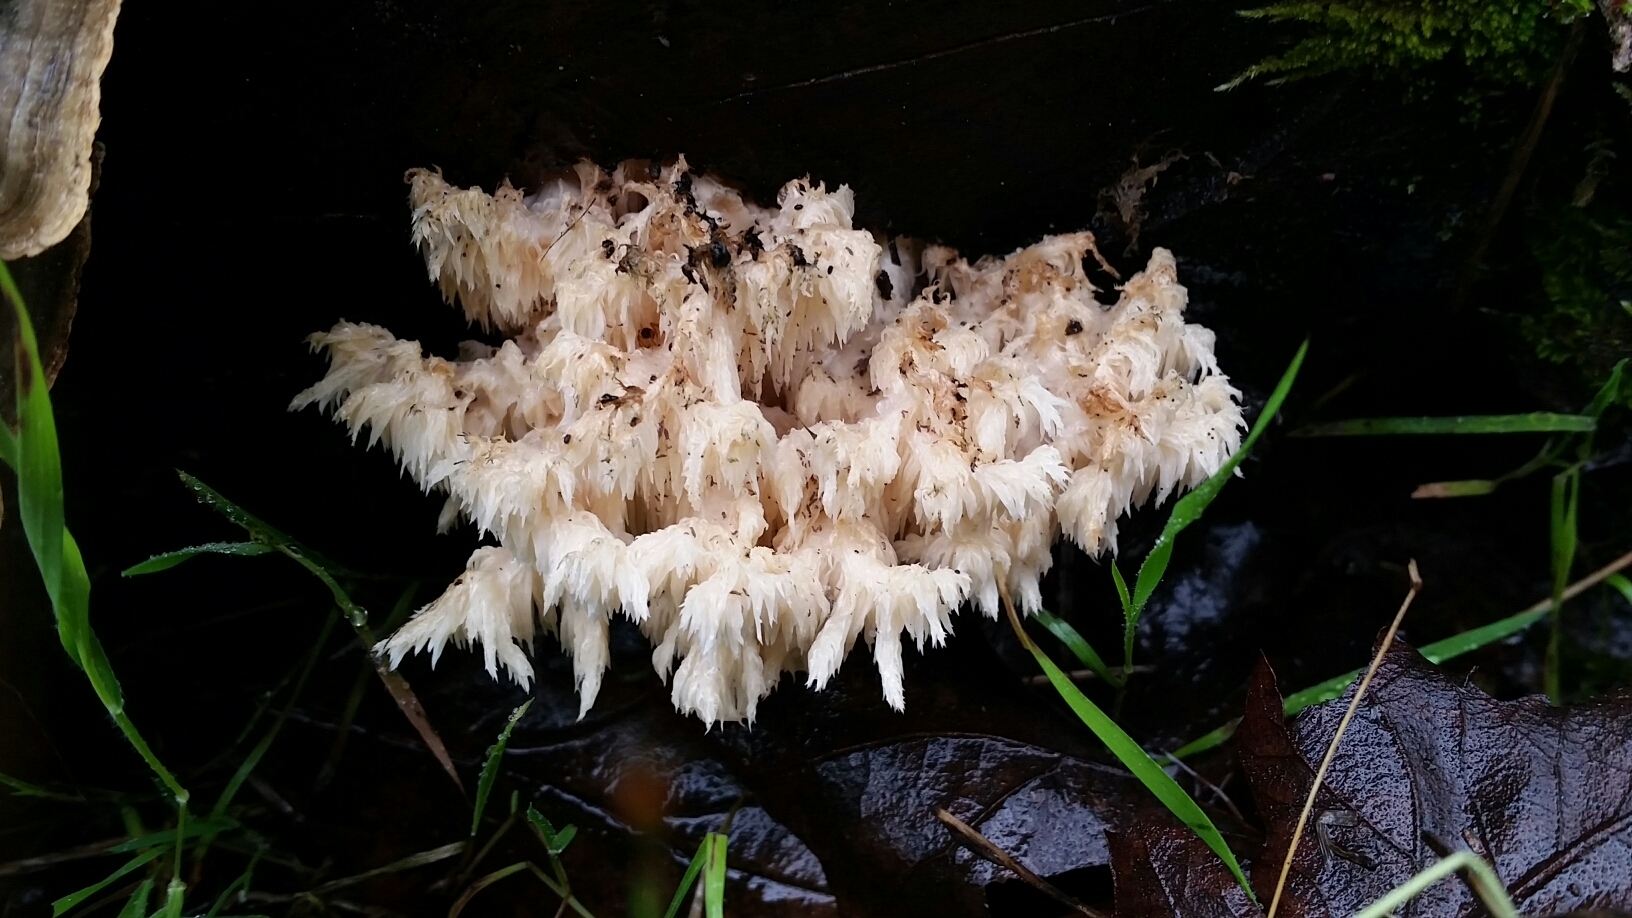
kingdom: Fungi
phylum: Basidiomycota
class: Agaricomycetes
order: Russulales
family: Hericiaceae
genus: Hericium
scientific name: Hericium coralloides
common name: Coral tooth
